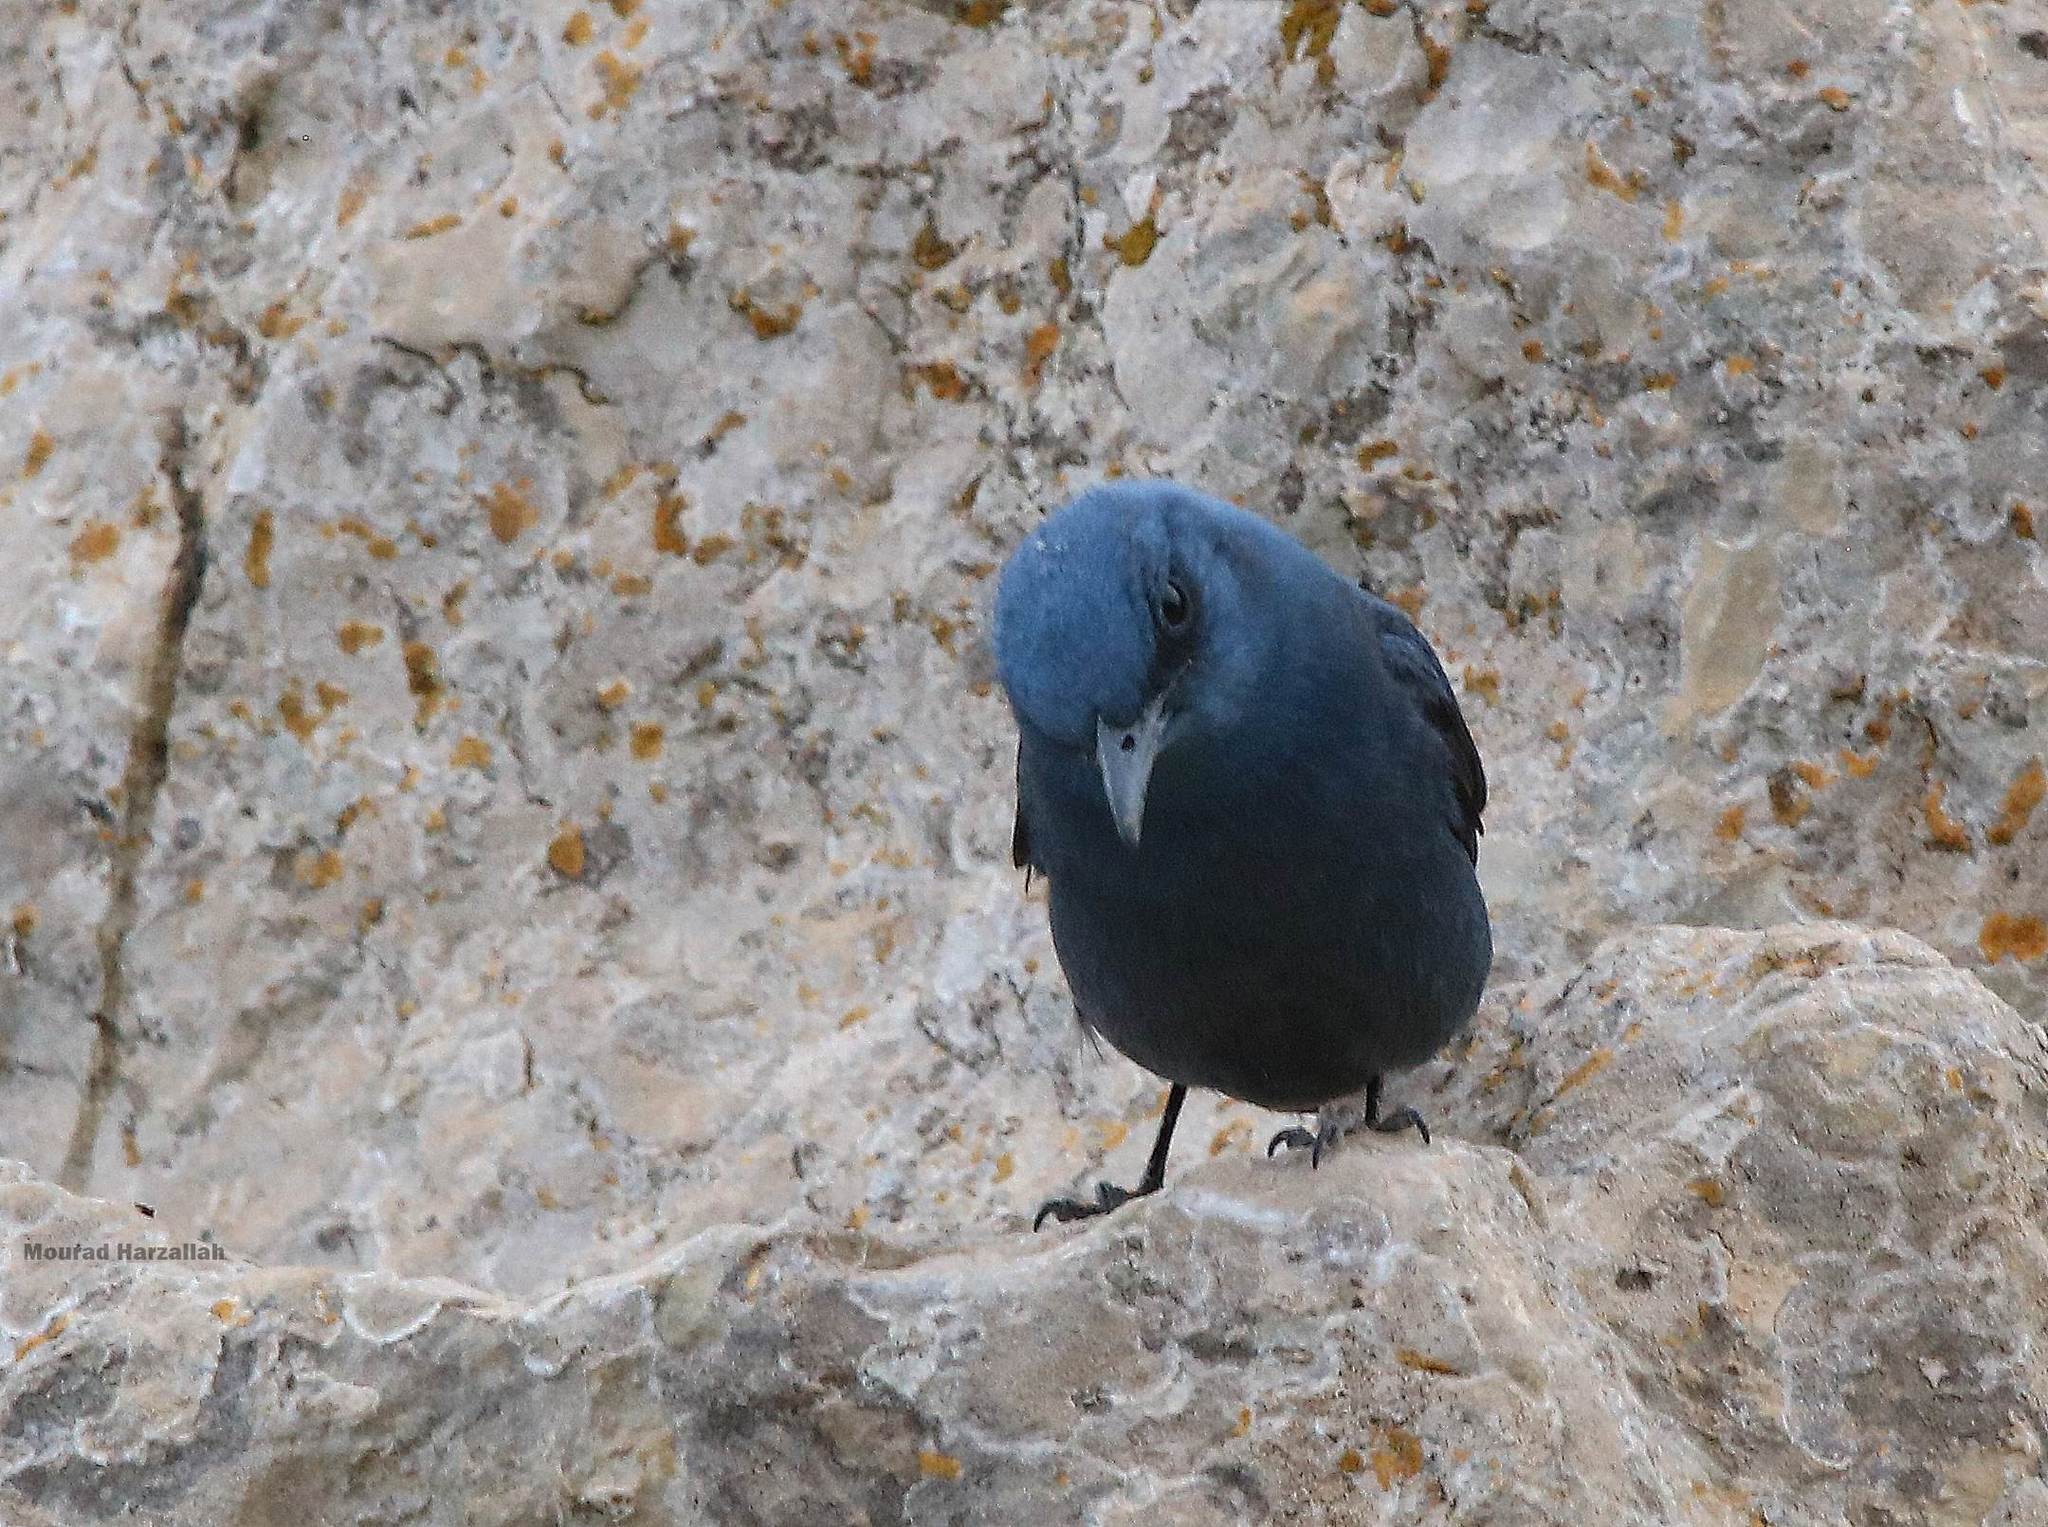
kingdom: Animalia
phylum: Chordata
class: Aves
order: Passeriformes
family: Muscicapidae
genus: Monticola
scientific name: Monticola solitarius
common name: Blue rock thrush
